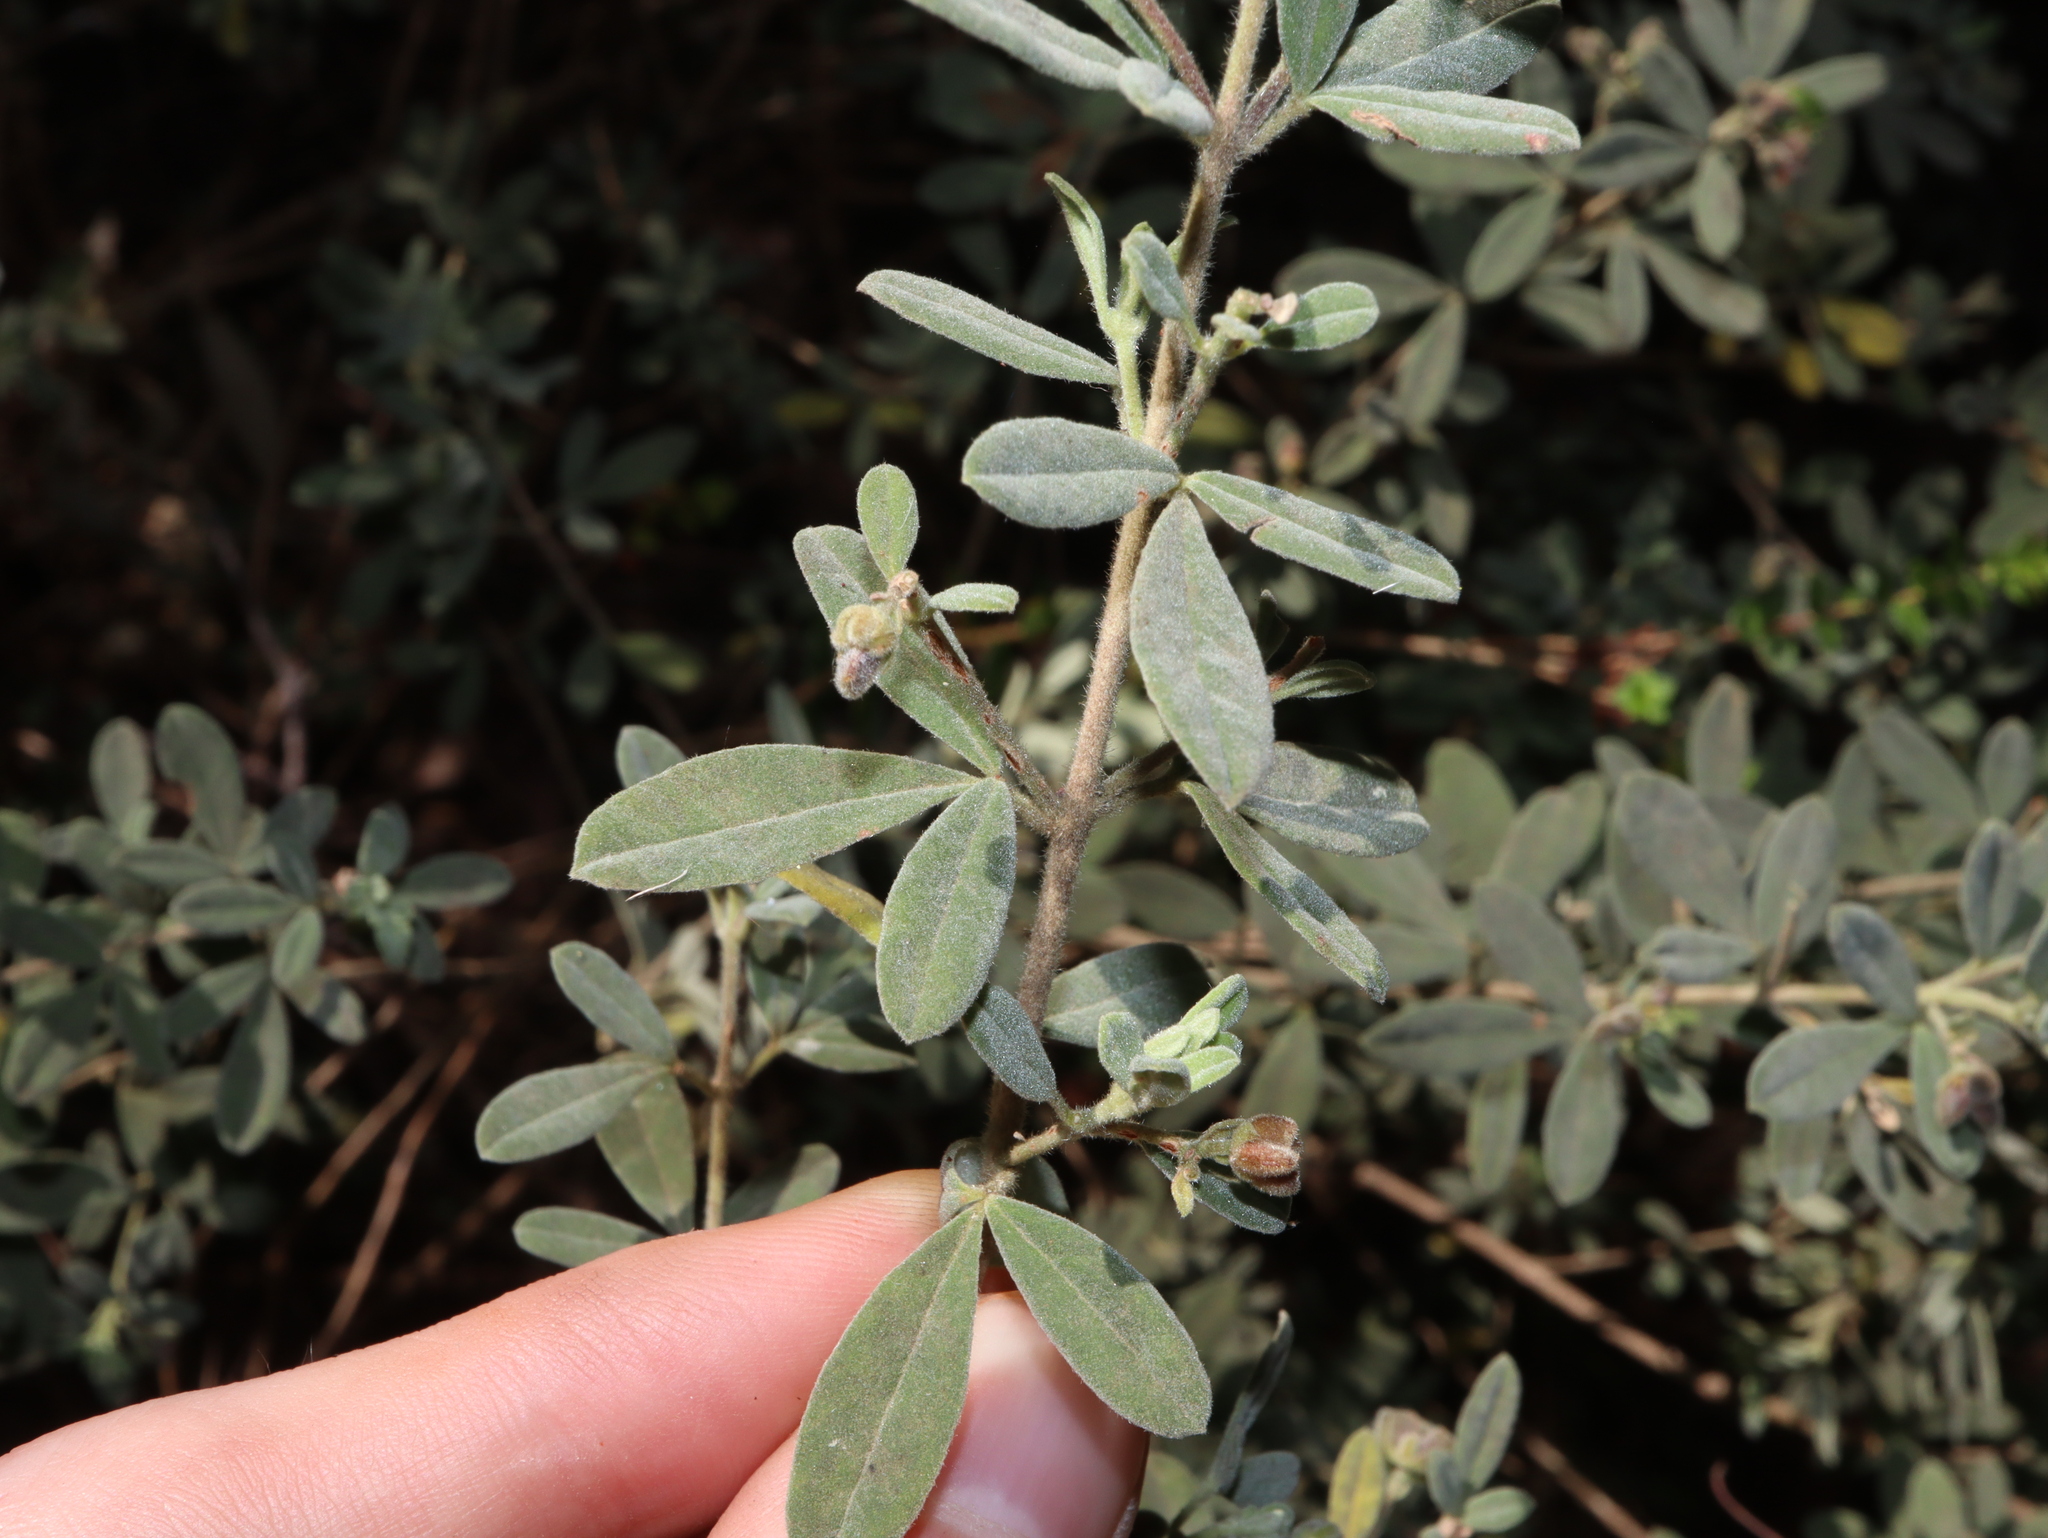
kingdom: Plantae
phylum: Tracheophyta
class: Magnoliopsida
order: Sapindales
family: Rutaceae
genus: Zieria
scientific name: Zieria cytisoides
